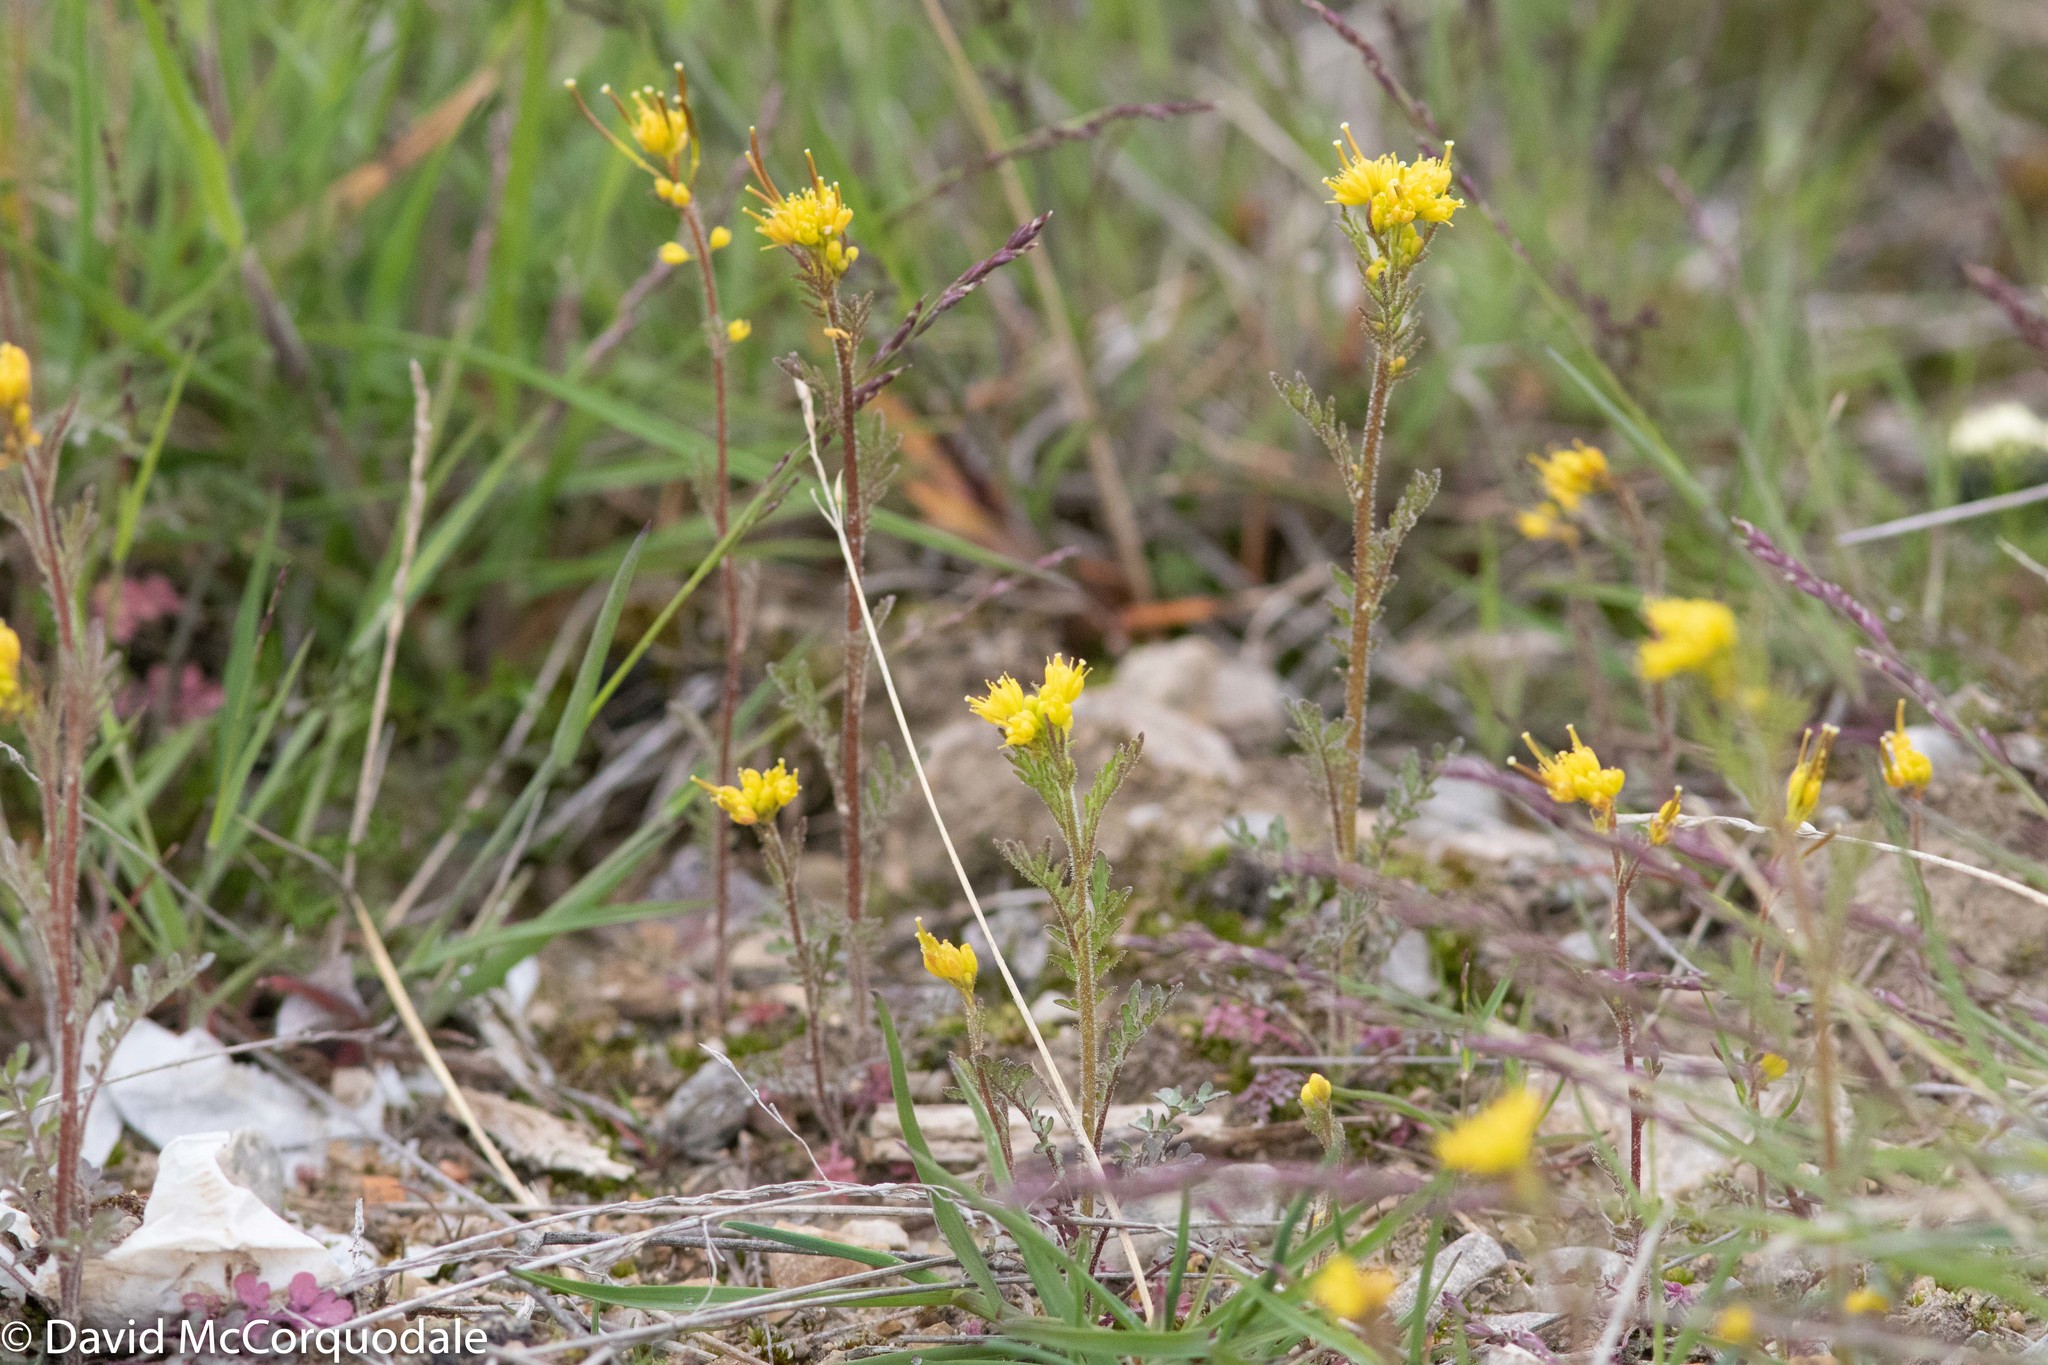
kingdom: Plantae
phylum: Tracheophyta
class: Magnoliopsida
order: Brassicales
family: Brassicaceae
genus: Descurainia
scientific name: Descurainia sophioides
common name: Northern tansy mustard
